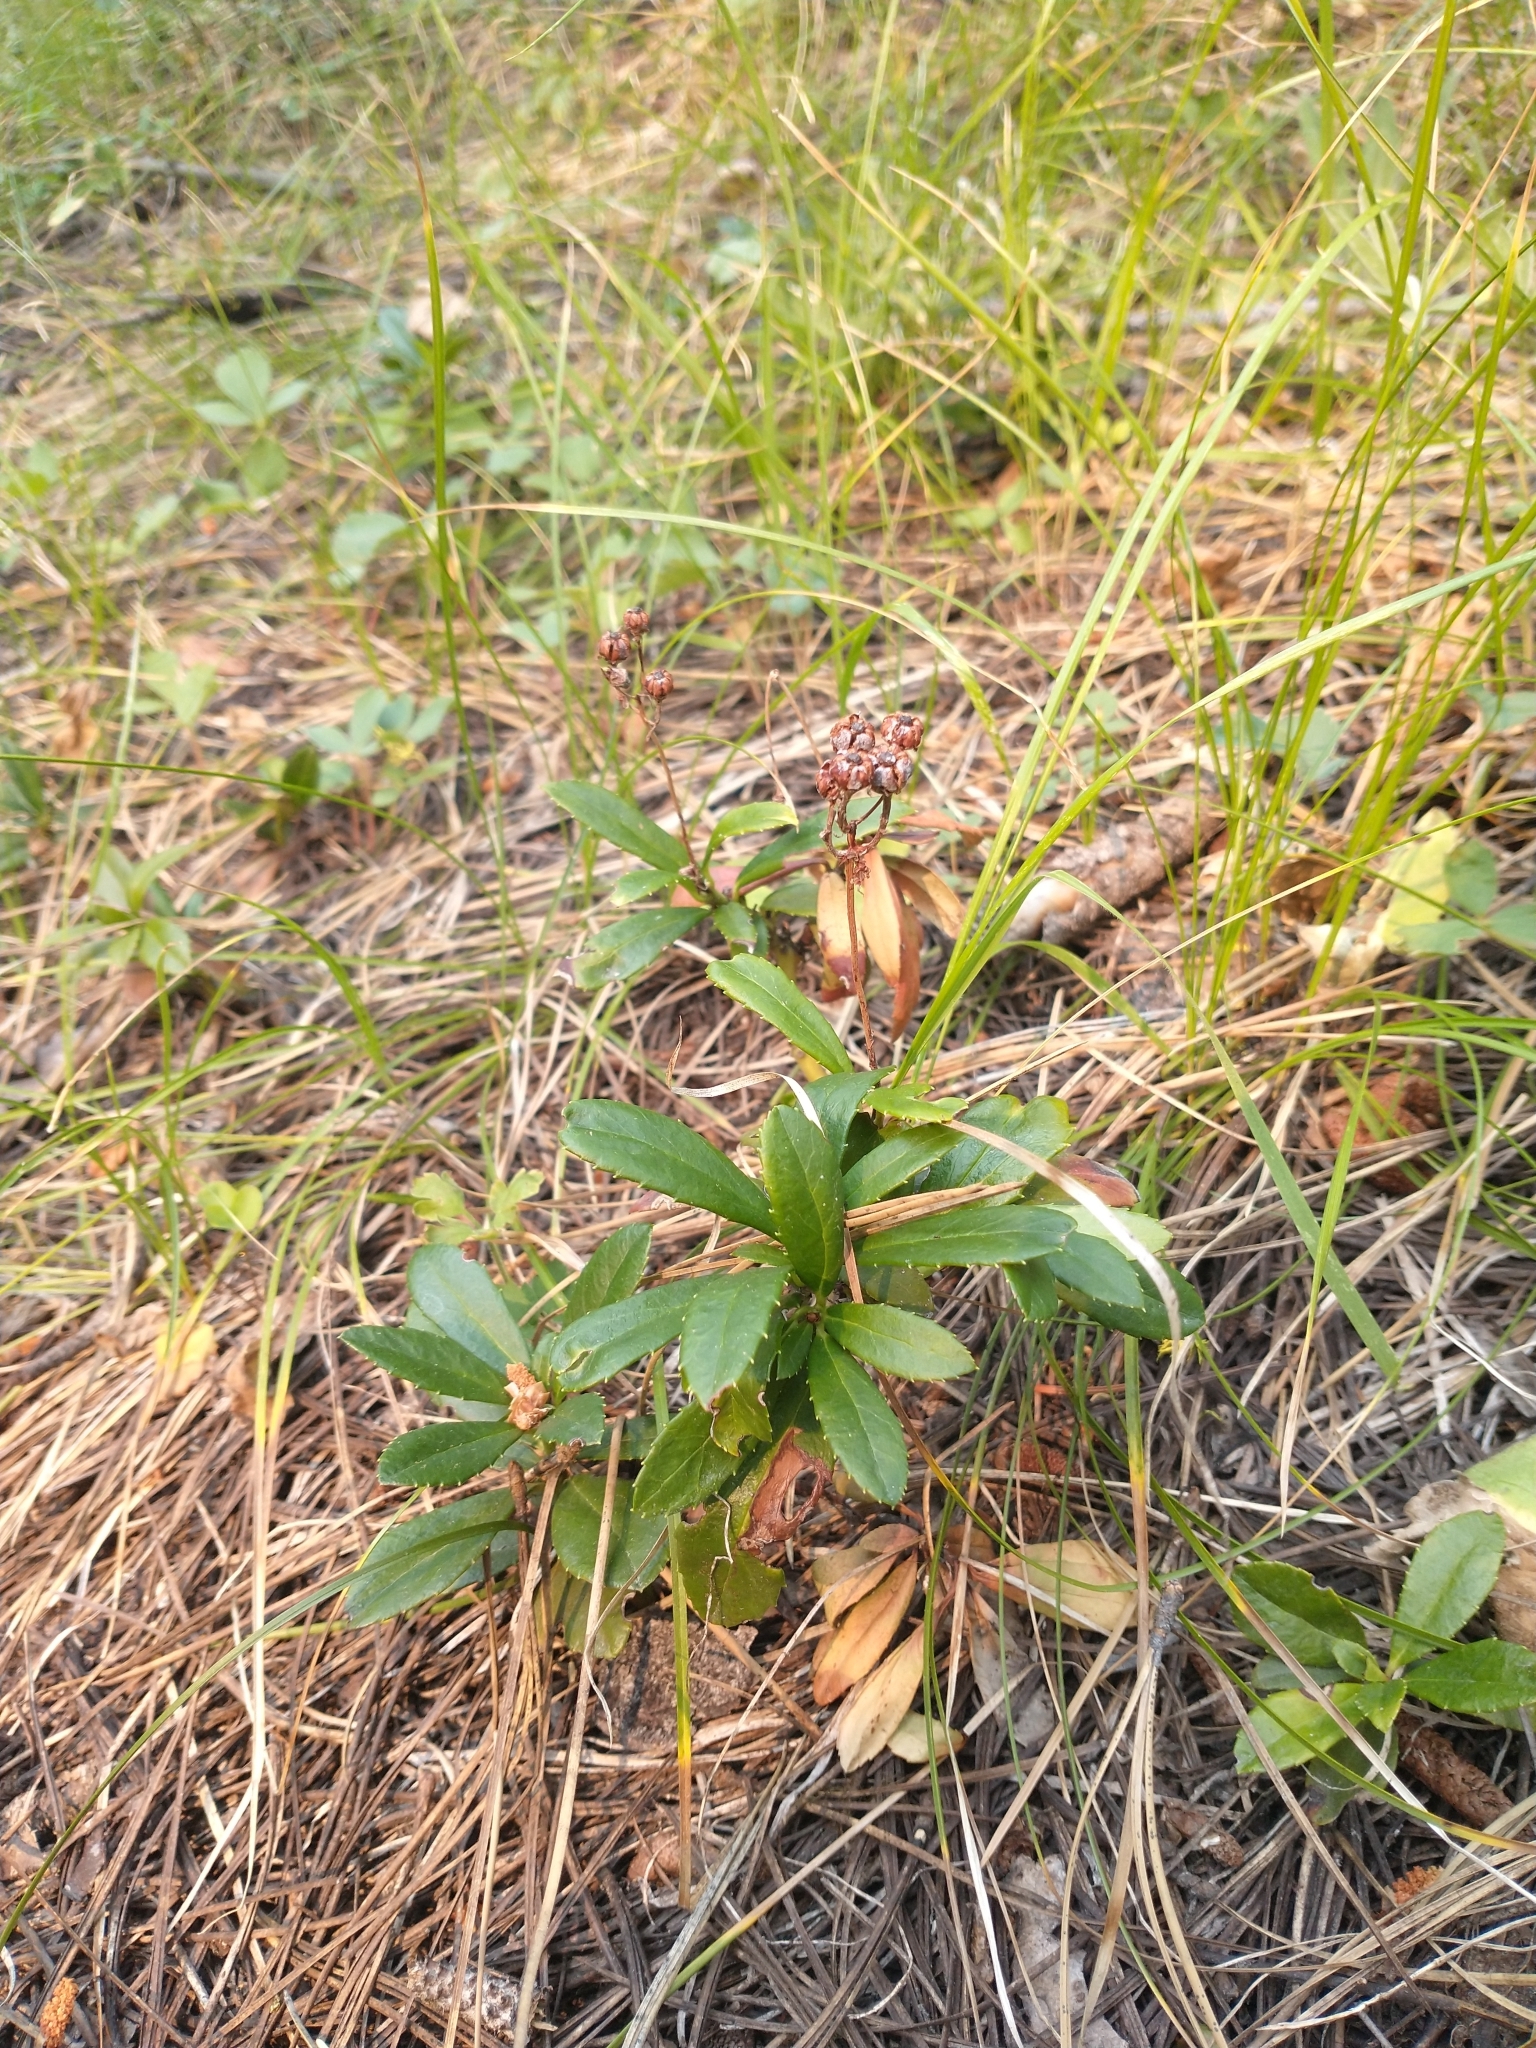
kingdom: Plantae
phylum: Tracheophyta
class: Magnoliopsida
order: Ericales
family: Ericaceae
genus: Chimaphila
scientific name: Chimaphila umbellata
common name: Pipsissewa
